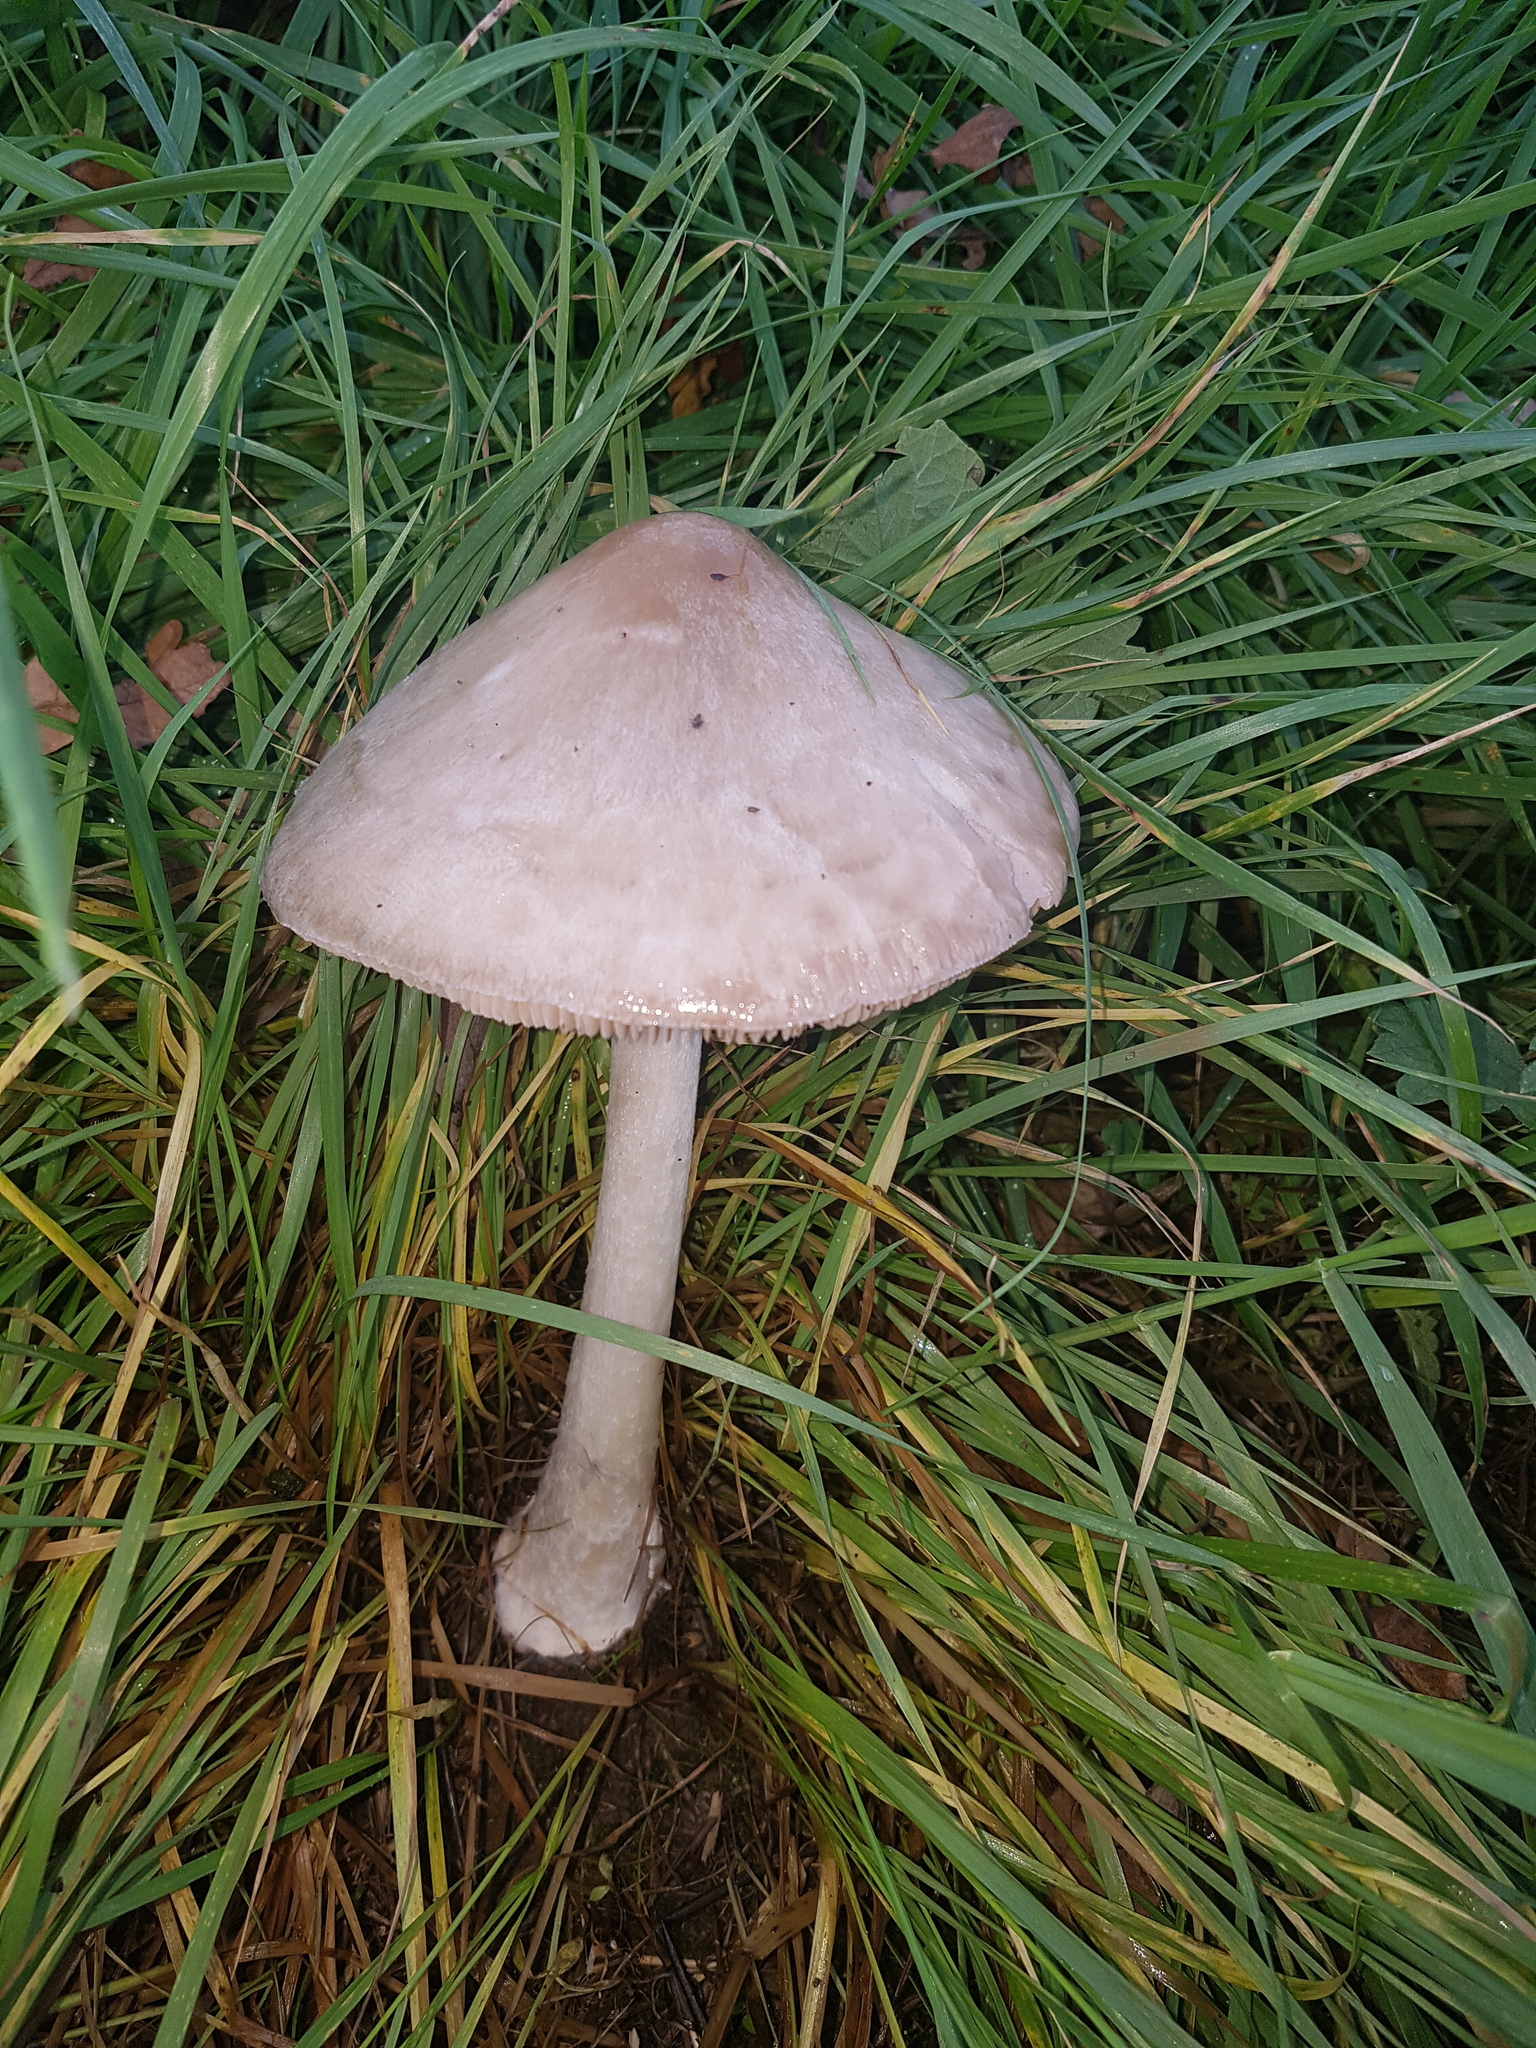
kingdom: Fungi
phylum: Basidiomycota
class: Agaricomycetes
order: Agaricales
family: Pluteaceae
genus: Volvopluteus
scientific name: Volvopluteus gloiocephalus
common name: Stubble rosegill
